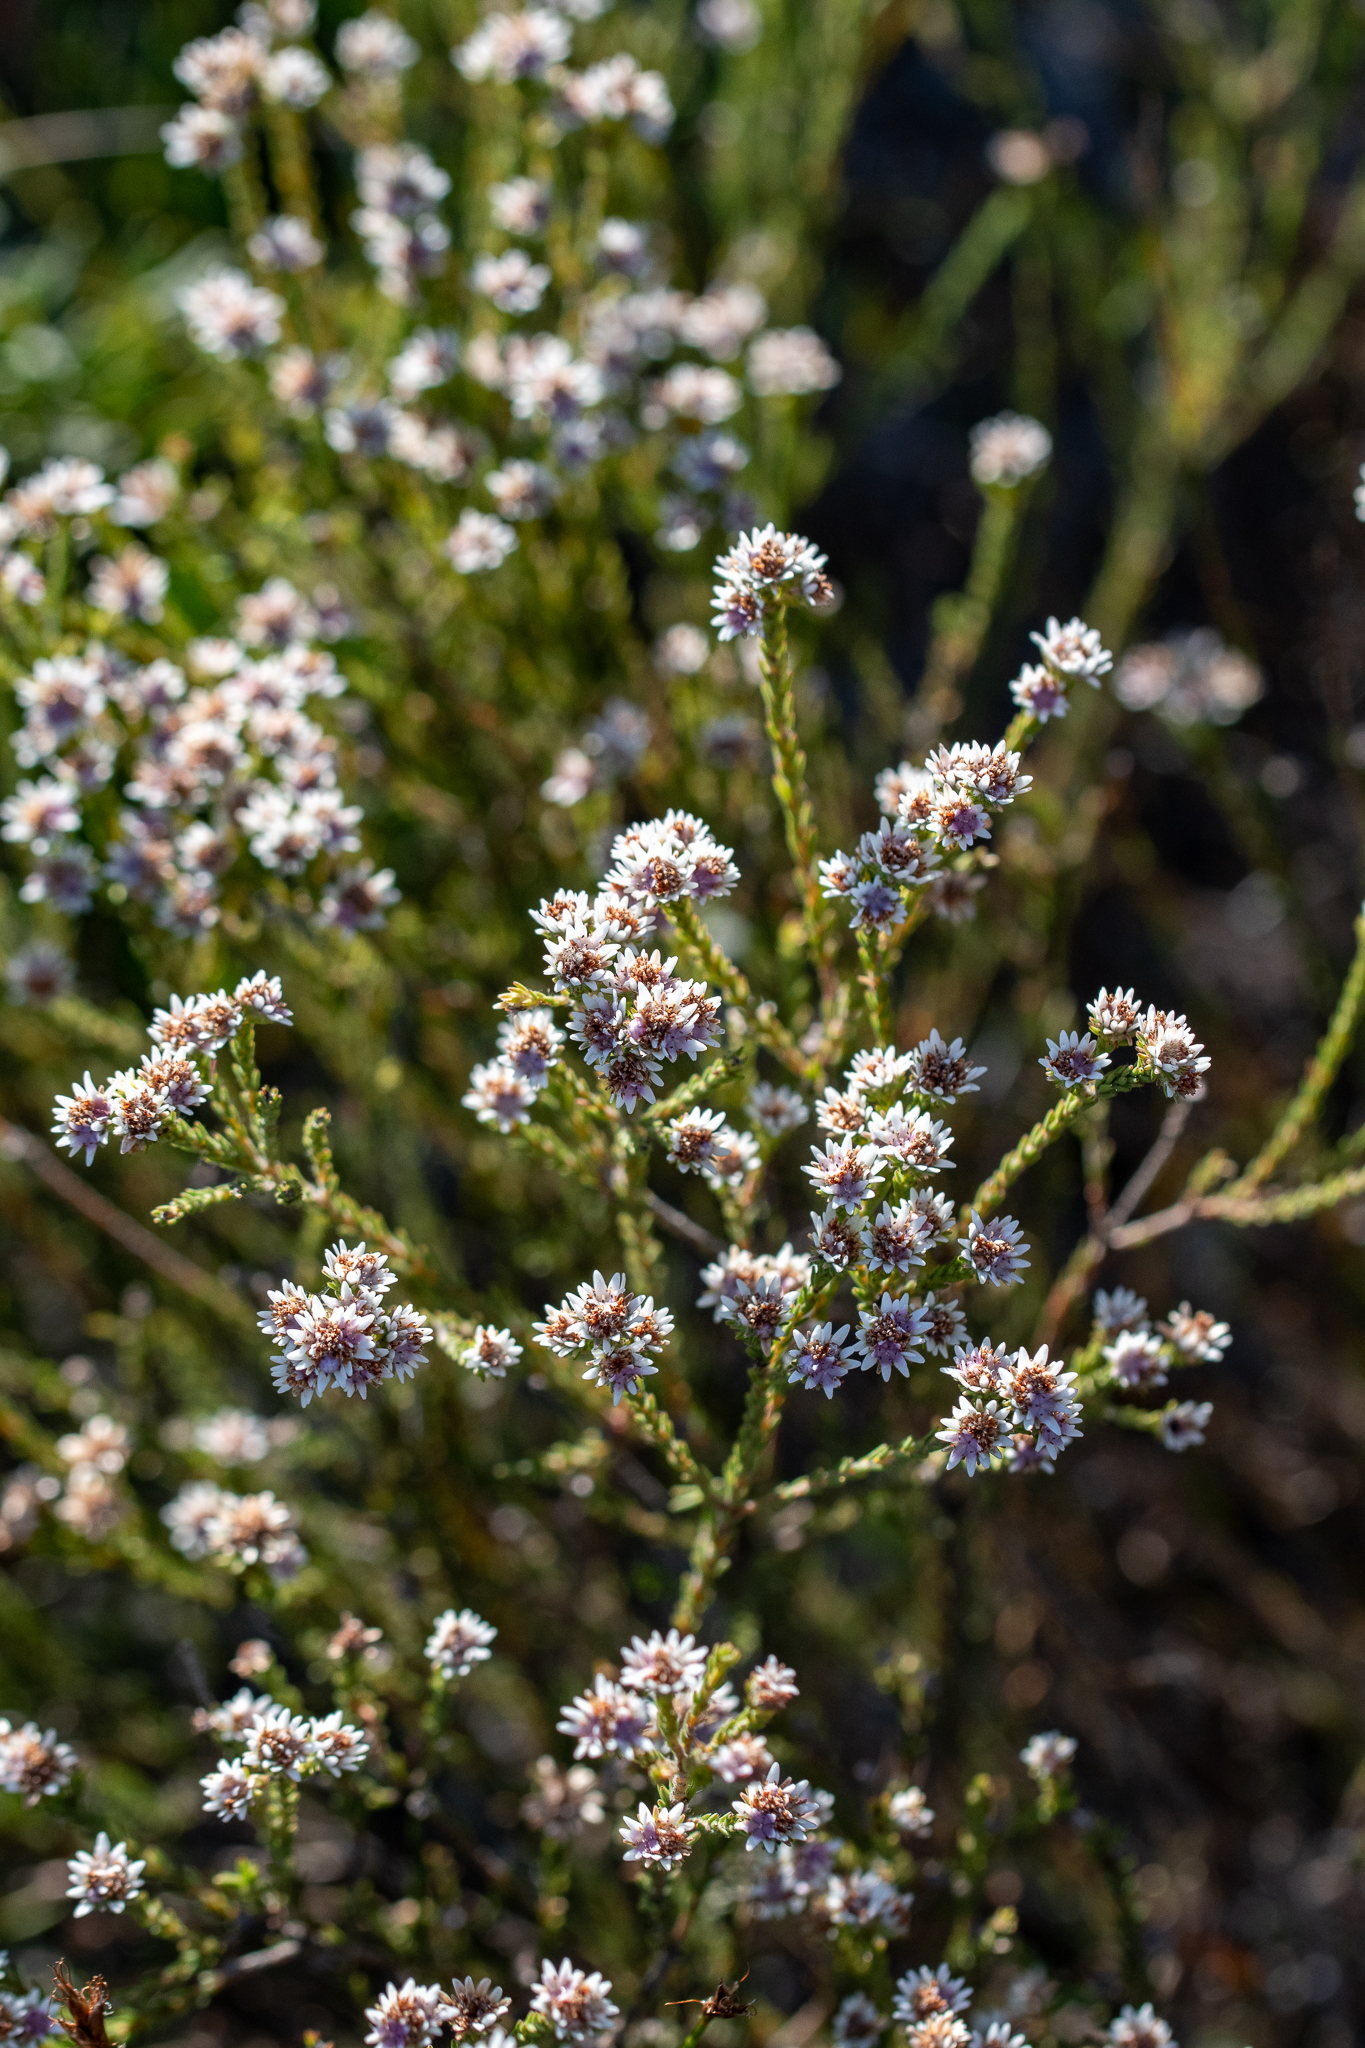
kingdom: Plantae
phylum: Tracheophyta
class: Magnoliopsida
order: Bruniales
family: Bruniaceae
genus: Staavia
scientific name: Staavia radiata
